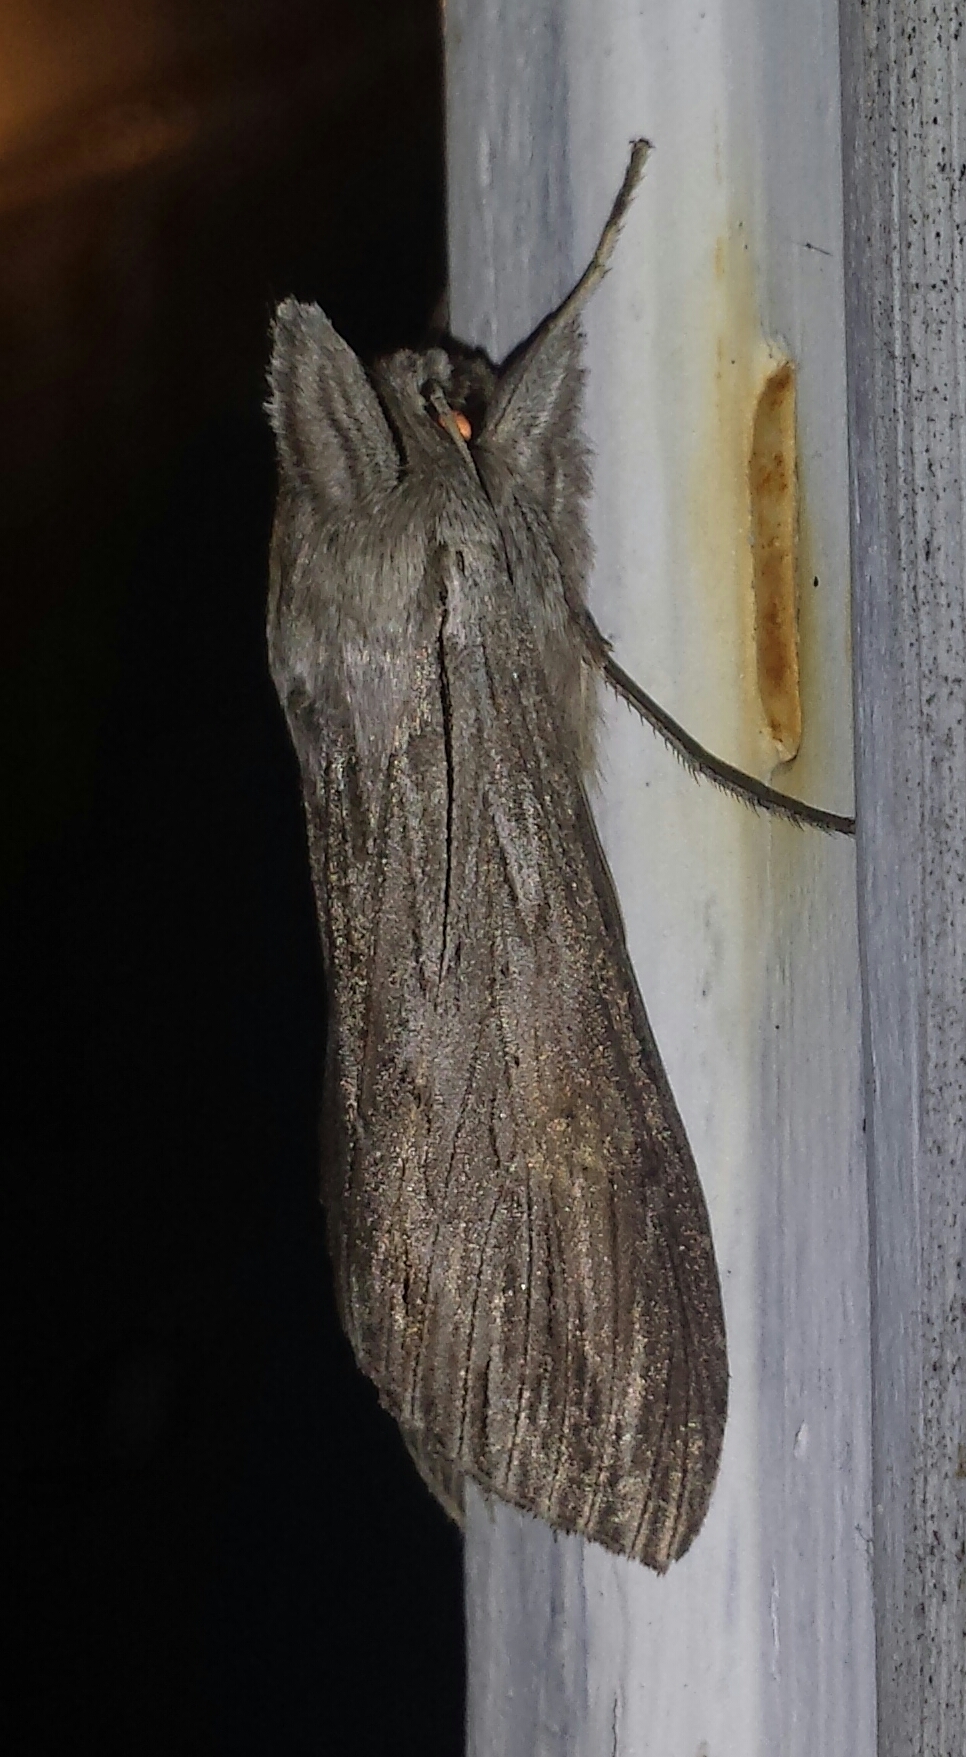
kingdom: Animalia
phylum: Arthropoda
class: Insecta
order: Lepidoptera
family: Noctuidae
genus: Cucullia
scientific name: Cucullia intermedia
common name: Goldenrod cutworm
